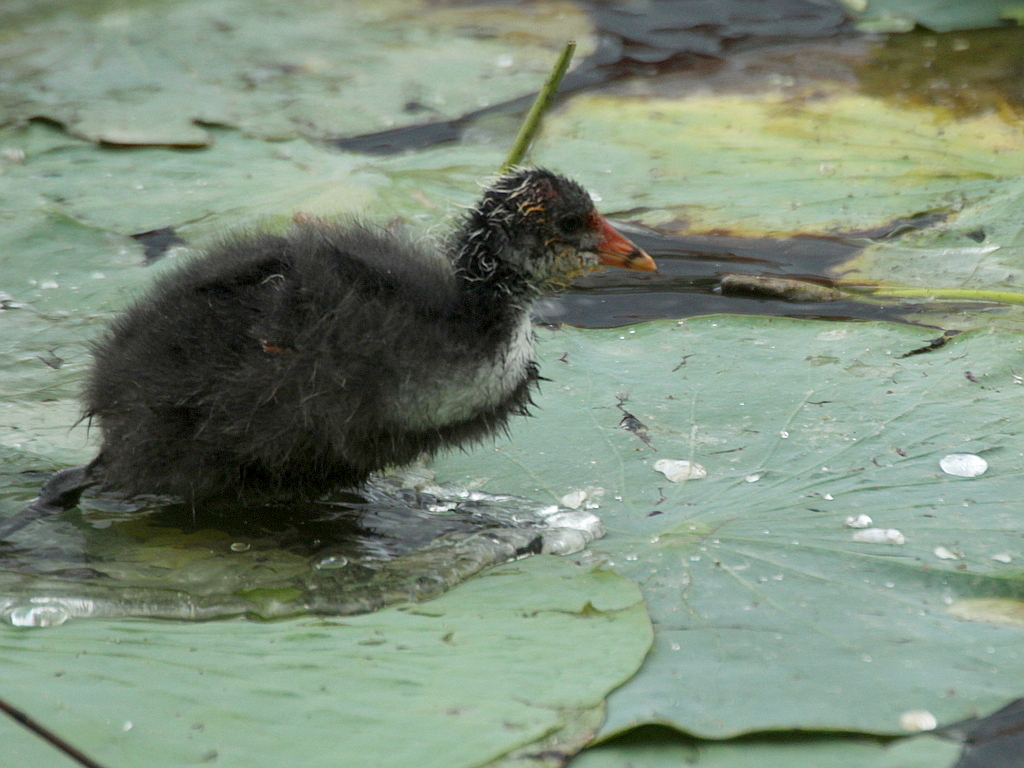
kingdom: Animalia
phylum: Chordata
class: Aves
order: Gruiformes
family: Rallidae
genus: Fulica
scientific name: Fulica atra
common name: Eurasian coot
